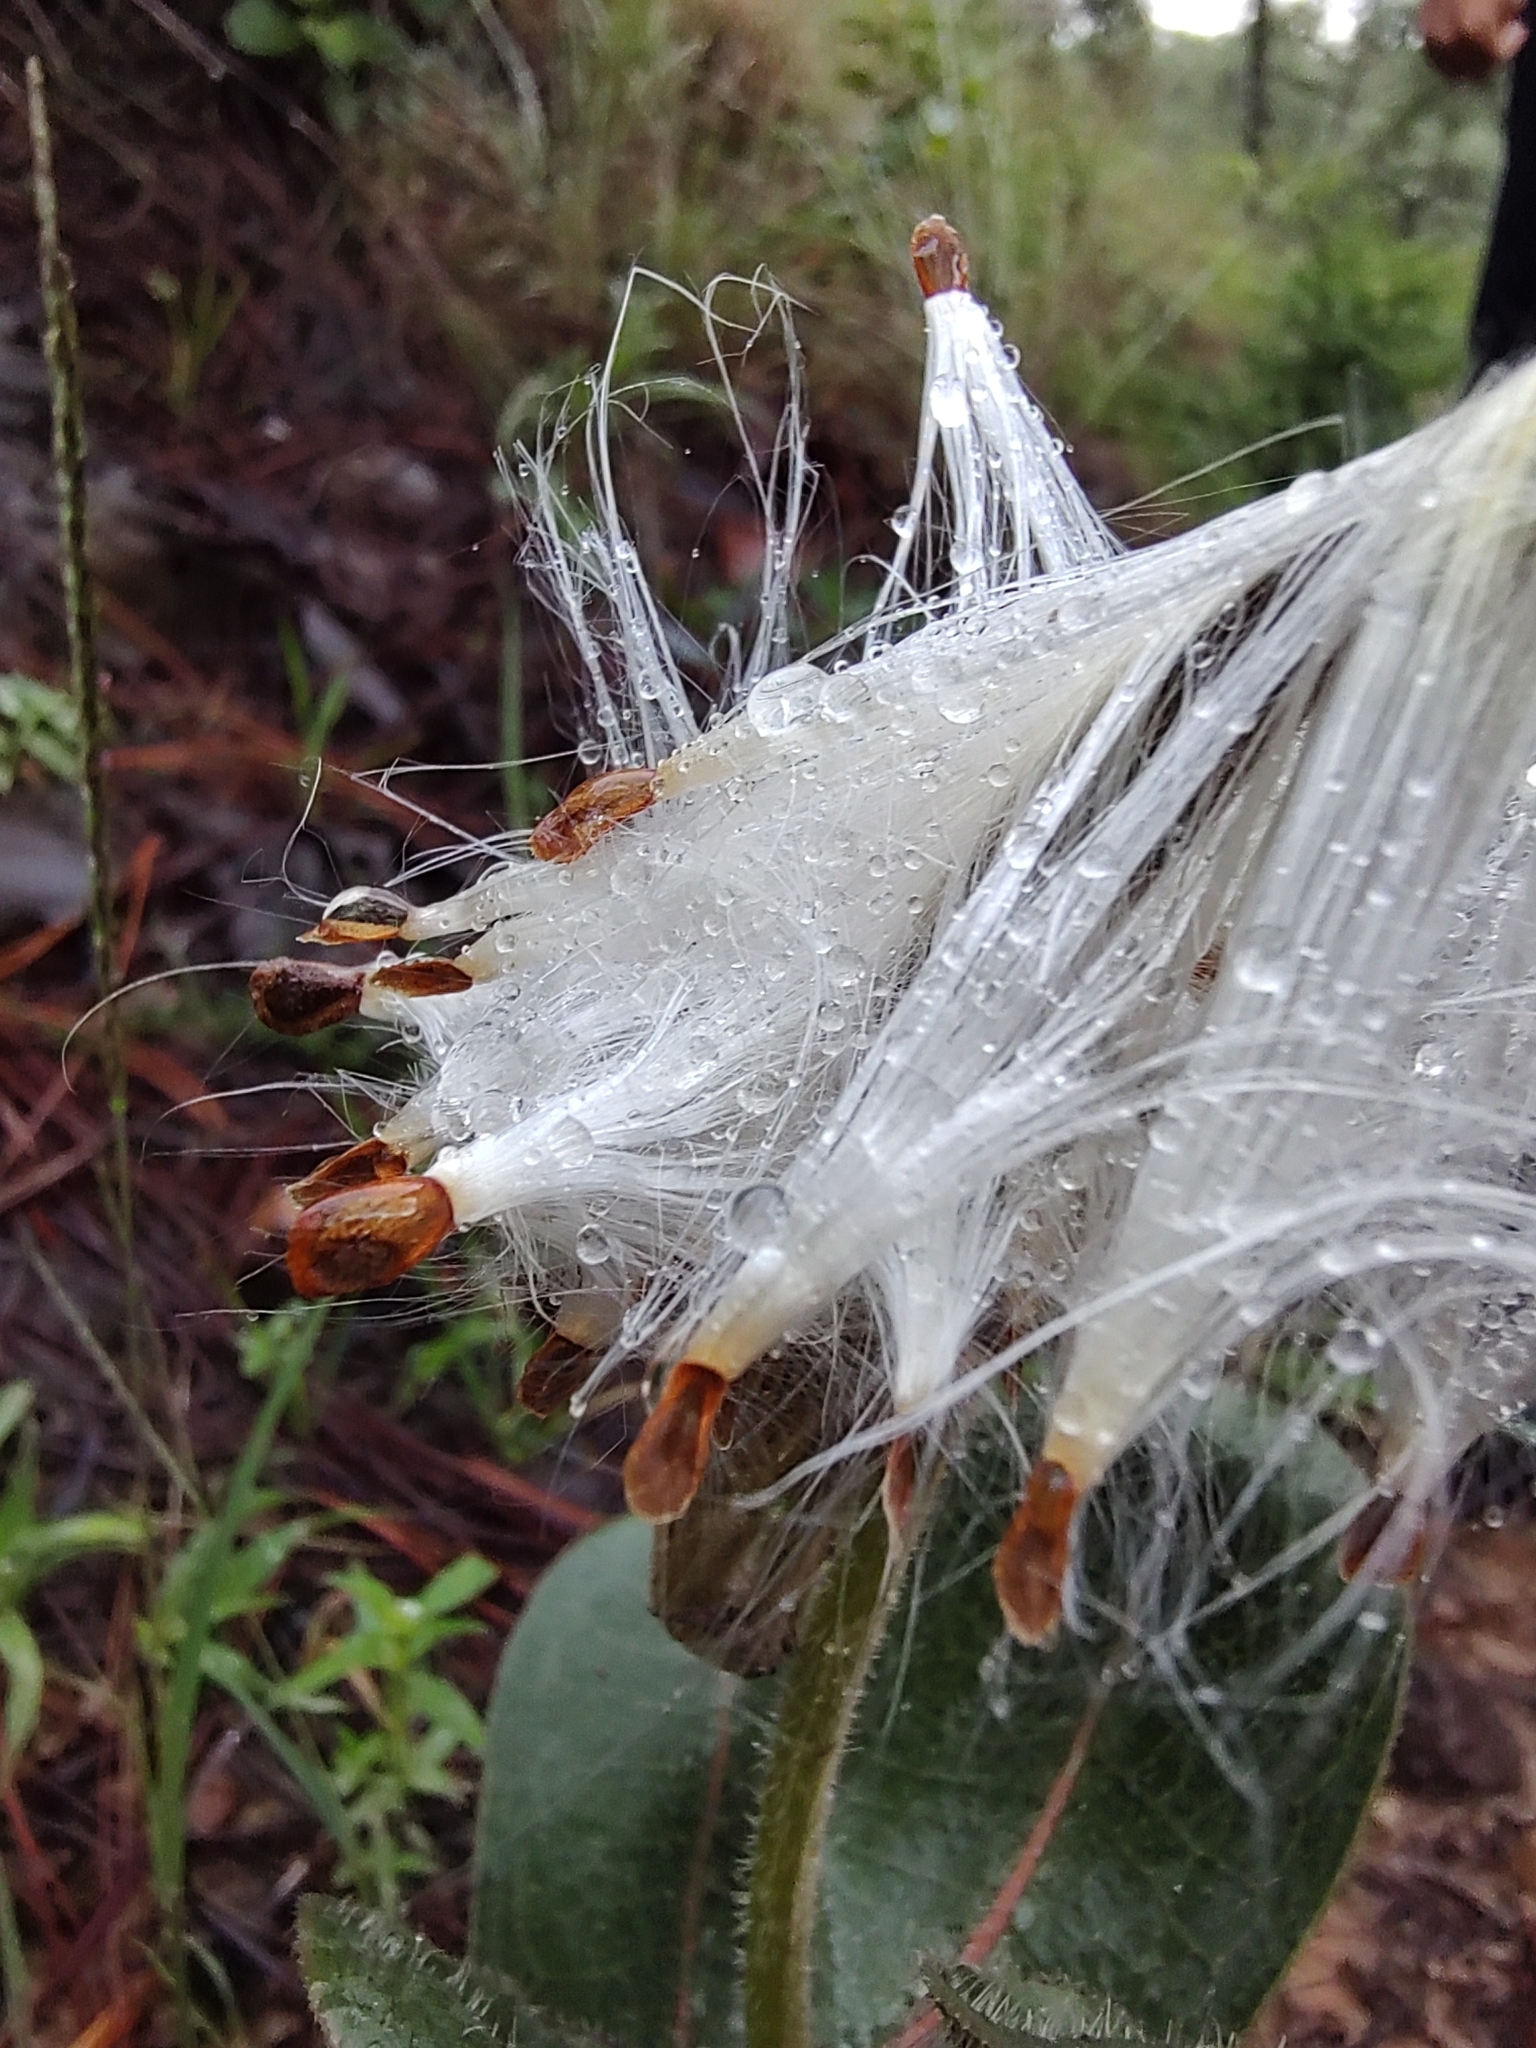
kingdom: Plantae
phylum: Tracheophyta
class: Magnoliopsida
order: Gentianales
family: Apocynaceae
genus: Asclepias
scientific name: Asclepias jaliscana
